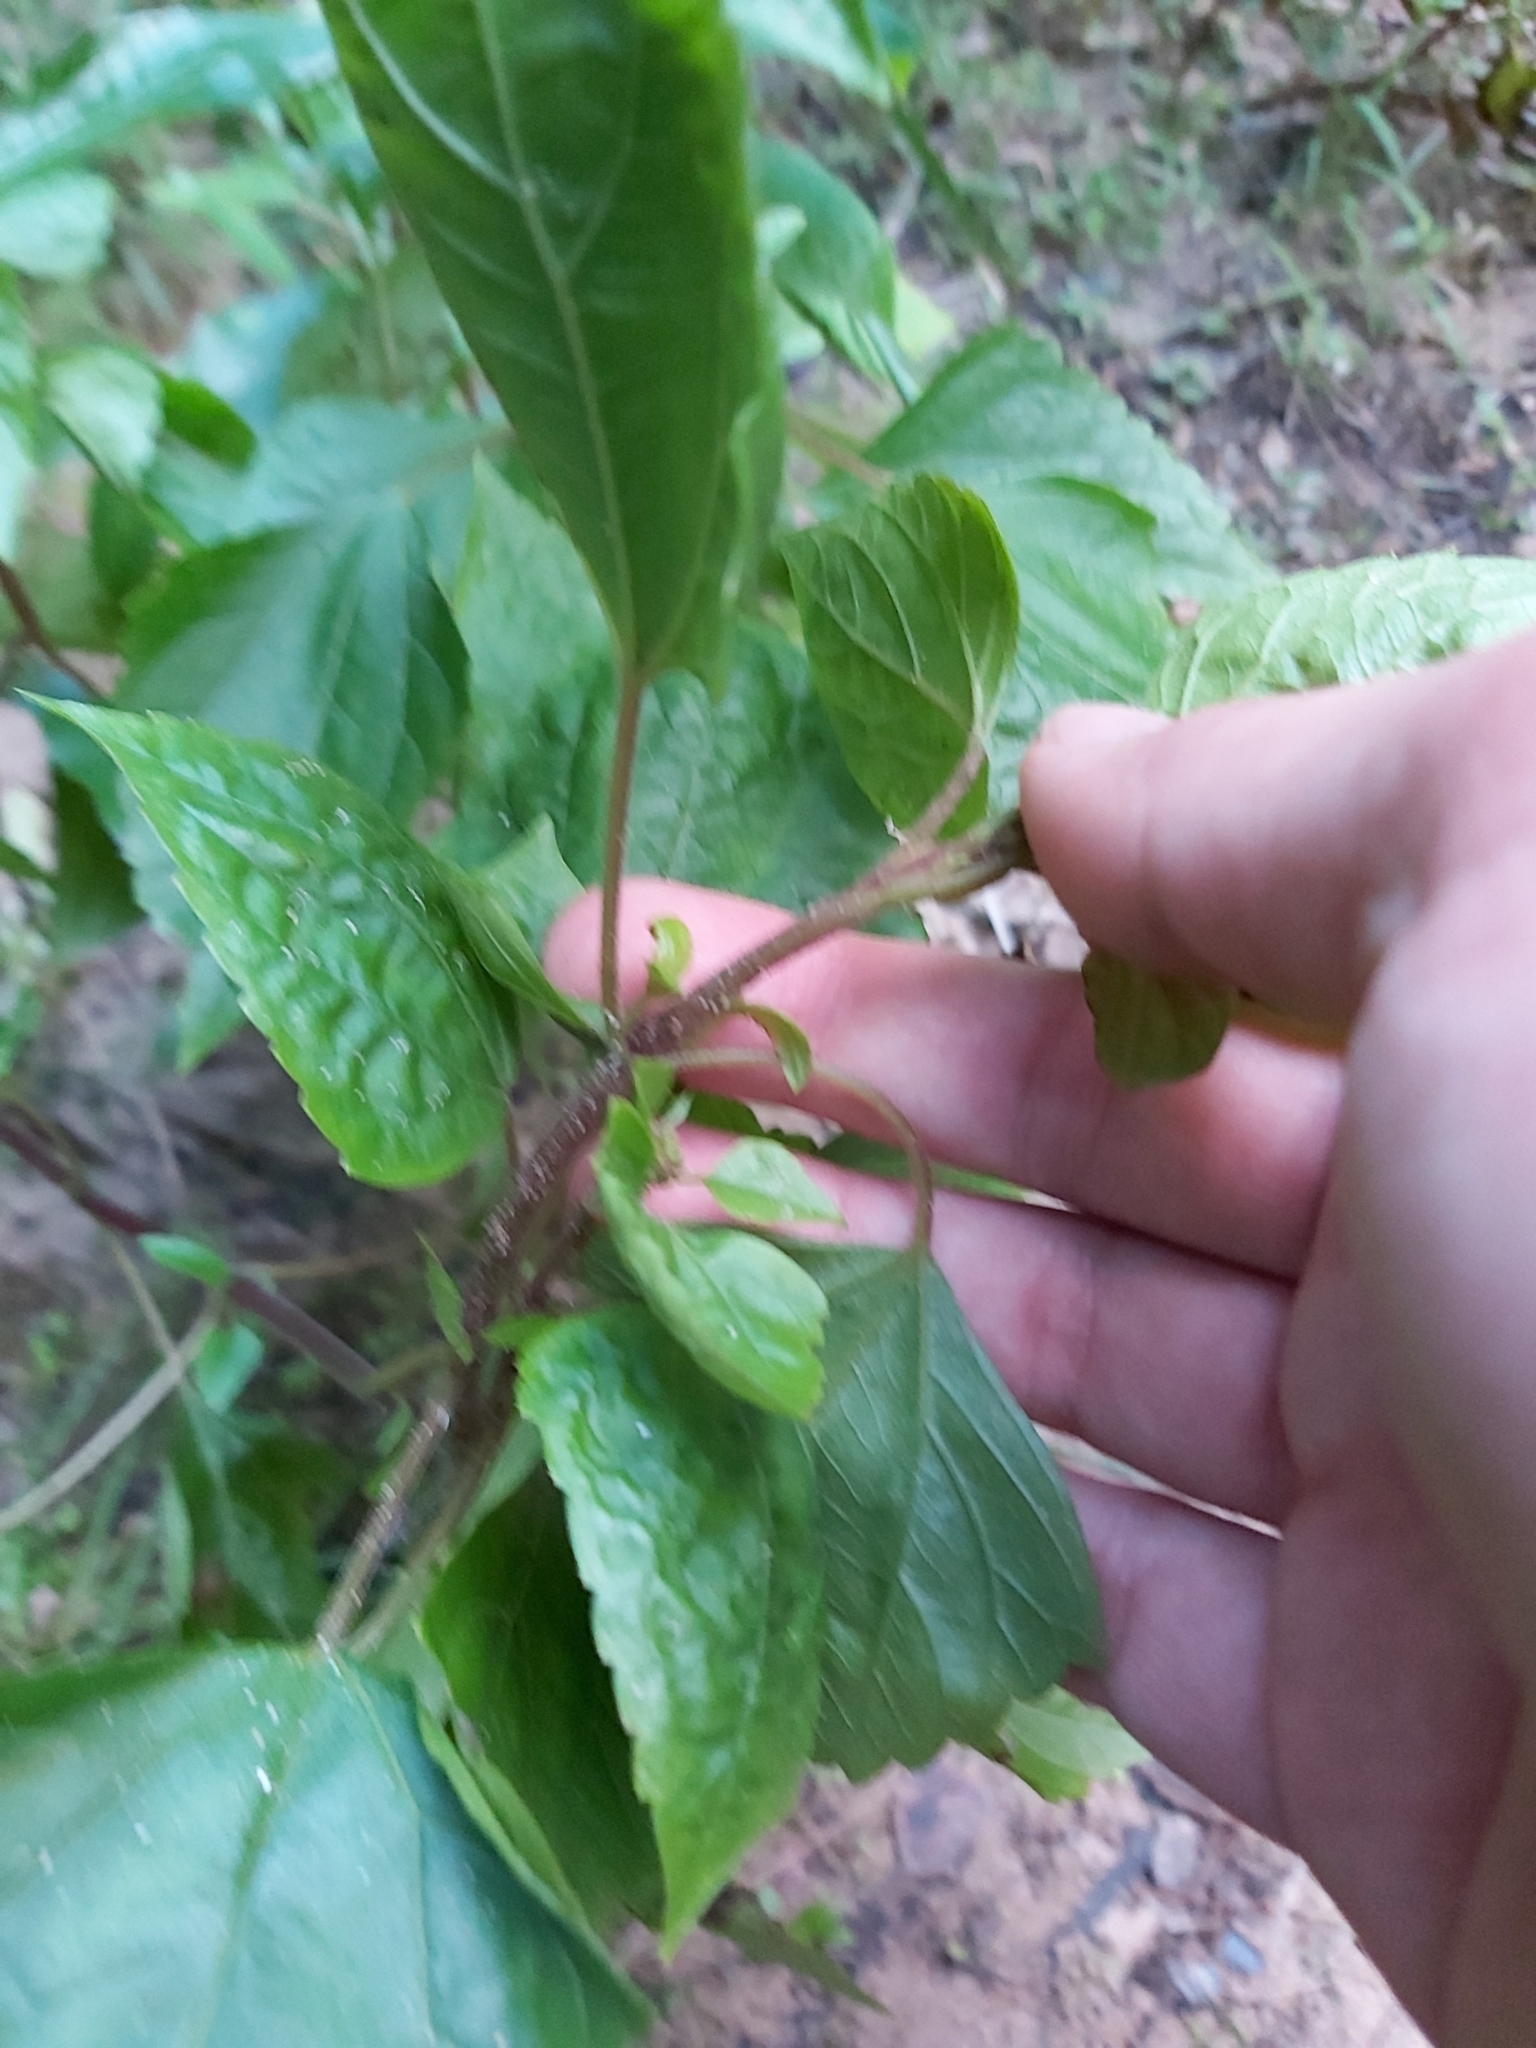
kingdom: Plantae
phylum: Tracheophyta
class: Magnoliopsida
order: Asterales
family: Asteraceae
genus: Ageratina
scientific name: Ageratina adenophora
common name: Sticky snakeroot
